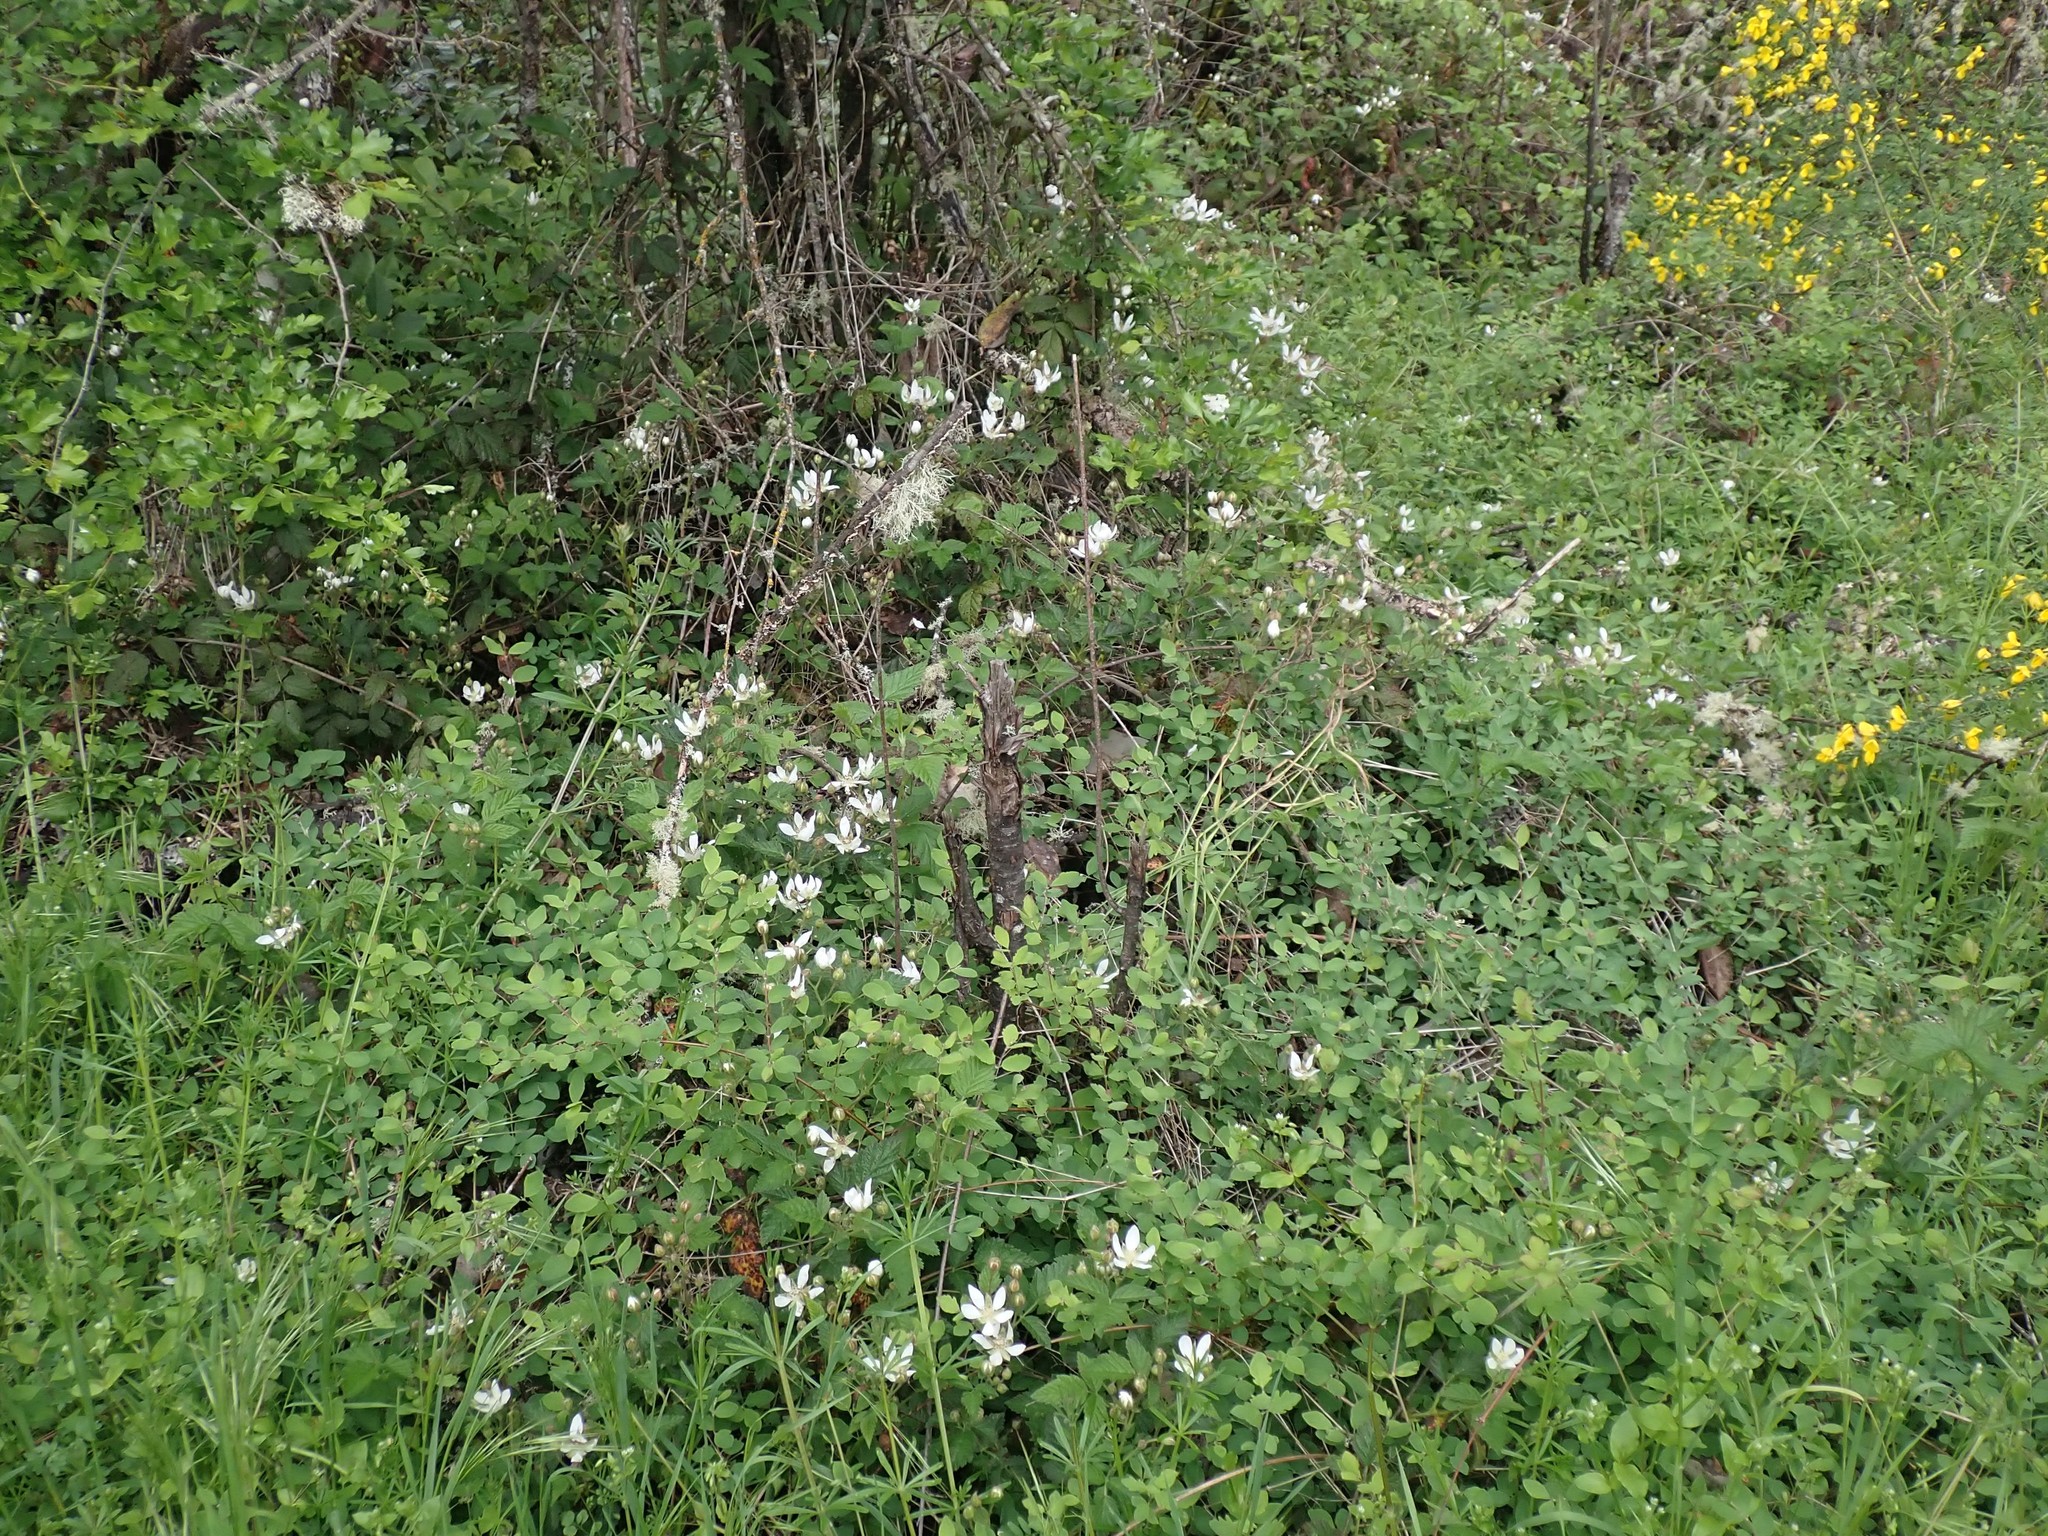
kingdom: Plantae
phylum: Tracheophyta
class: Magnoliopsida
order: Rosales
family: Rosaceae
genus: Rubus
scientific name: Rubus ursinus
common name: Pacific blackberry
